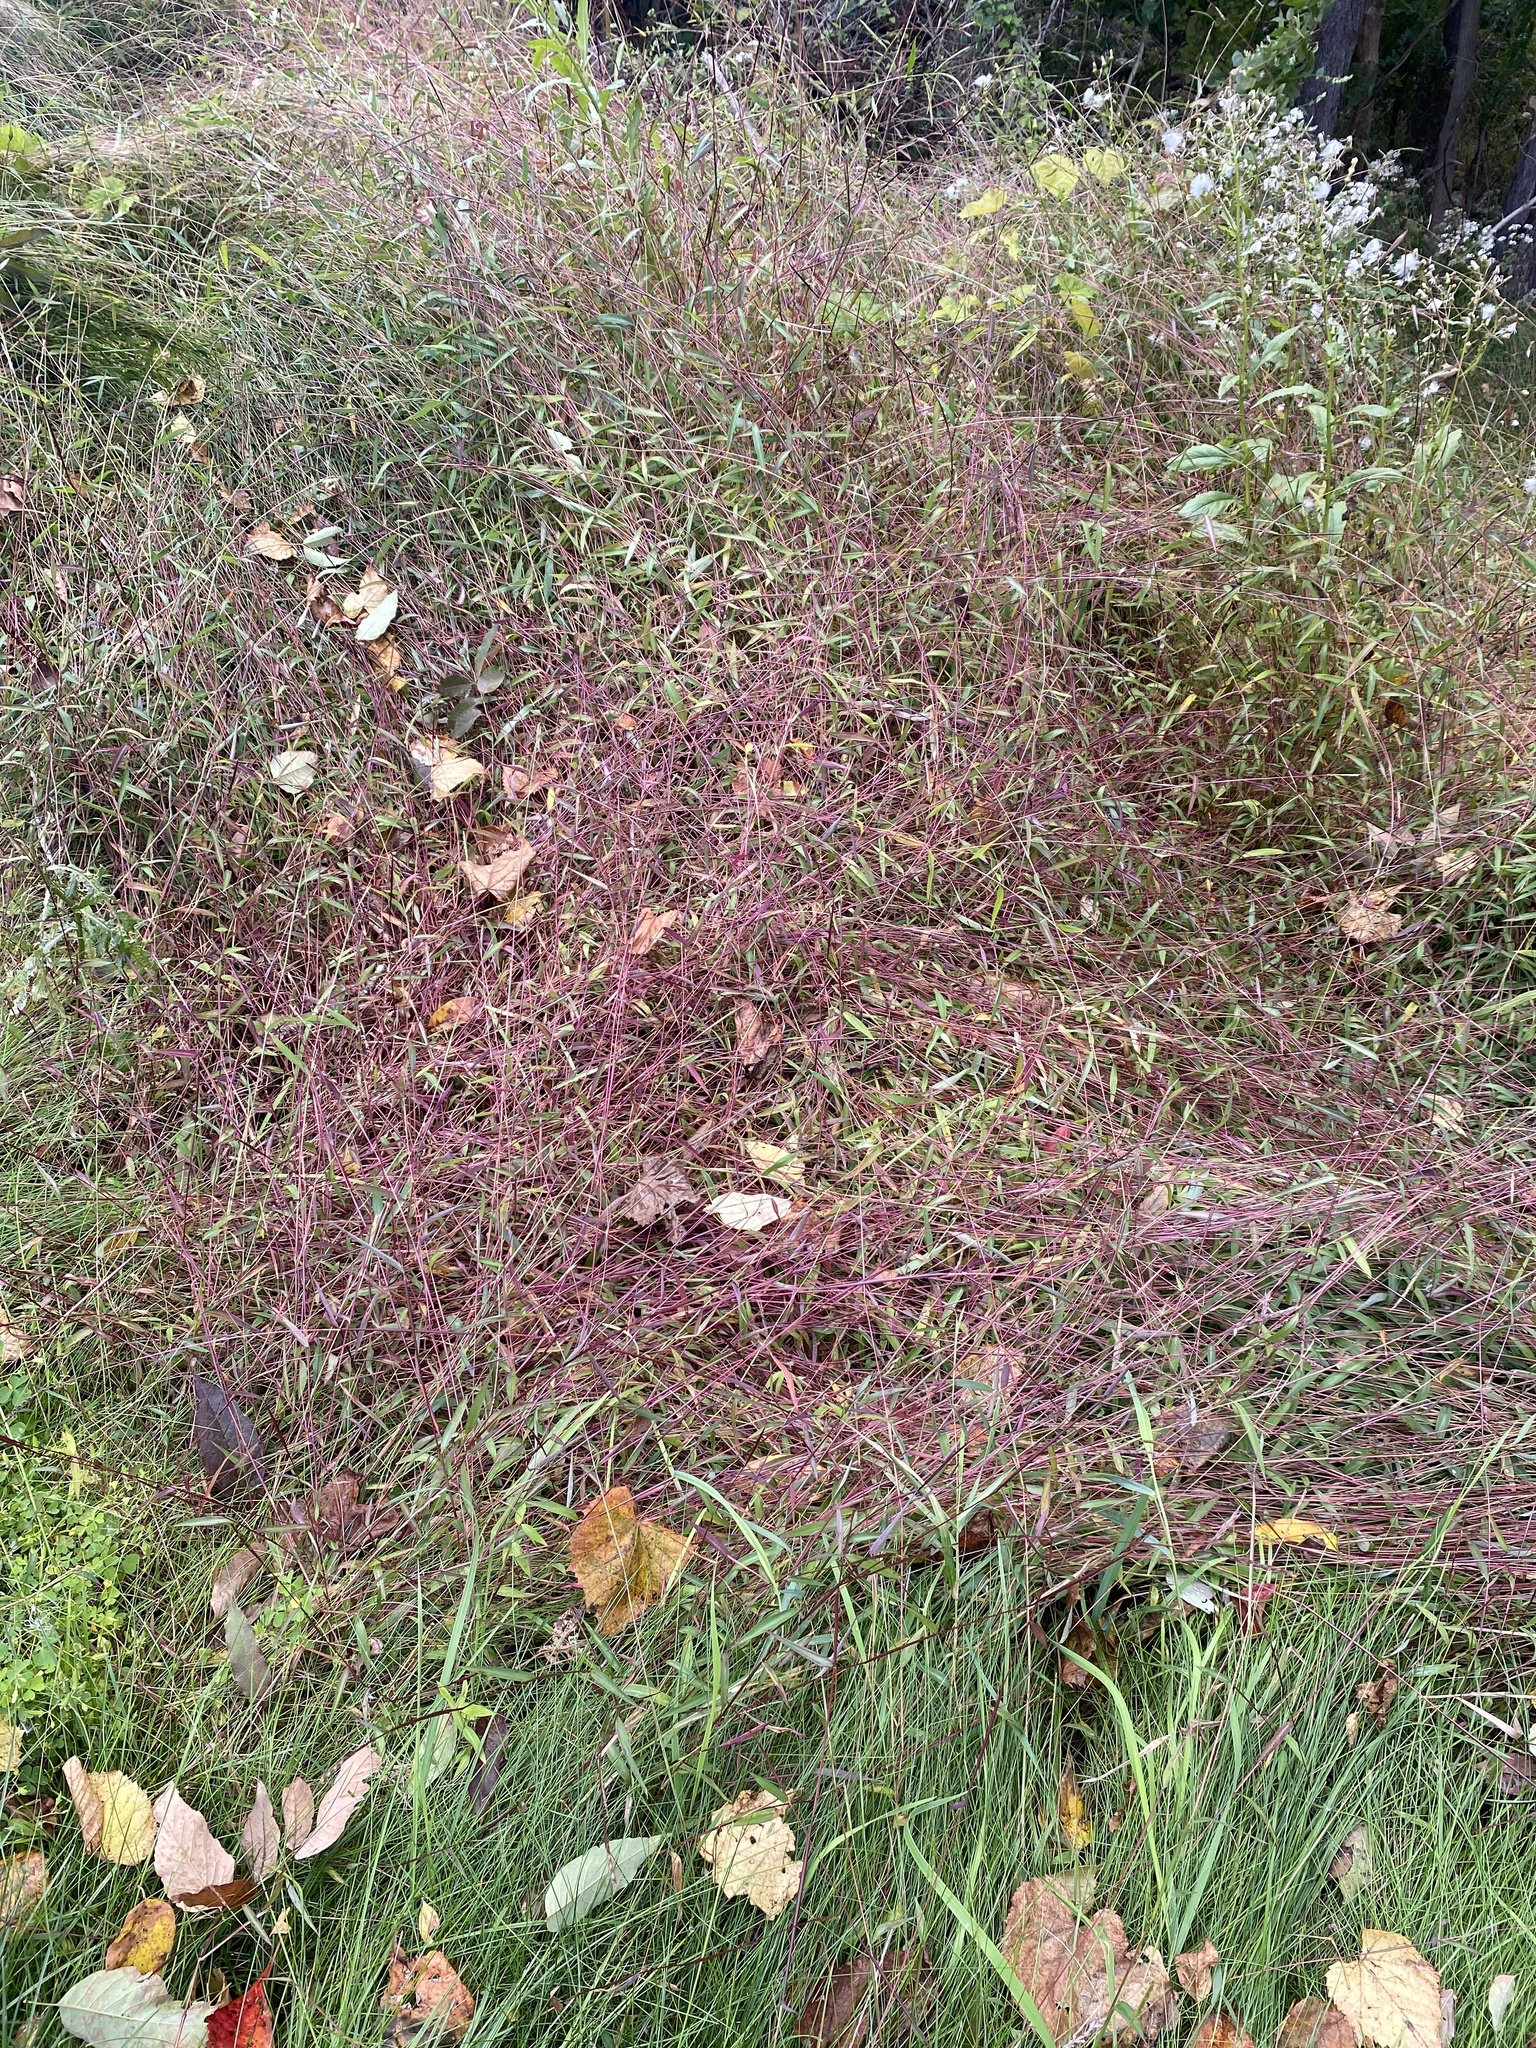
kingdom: Plantae
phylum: Tracheophyta
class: Liliopsida
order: Poales
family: Poaceae
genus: Microstegium
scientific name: Microstegium vimineum
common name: Japanese stiltgrass
